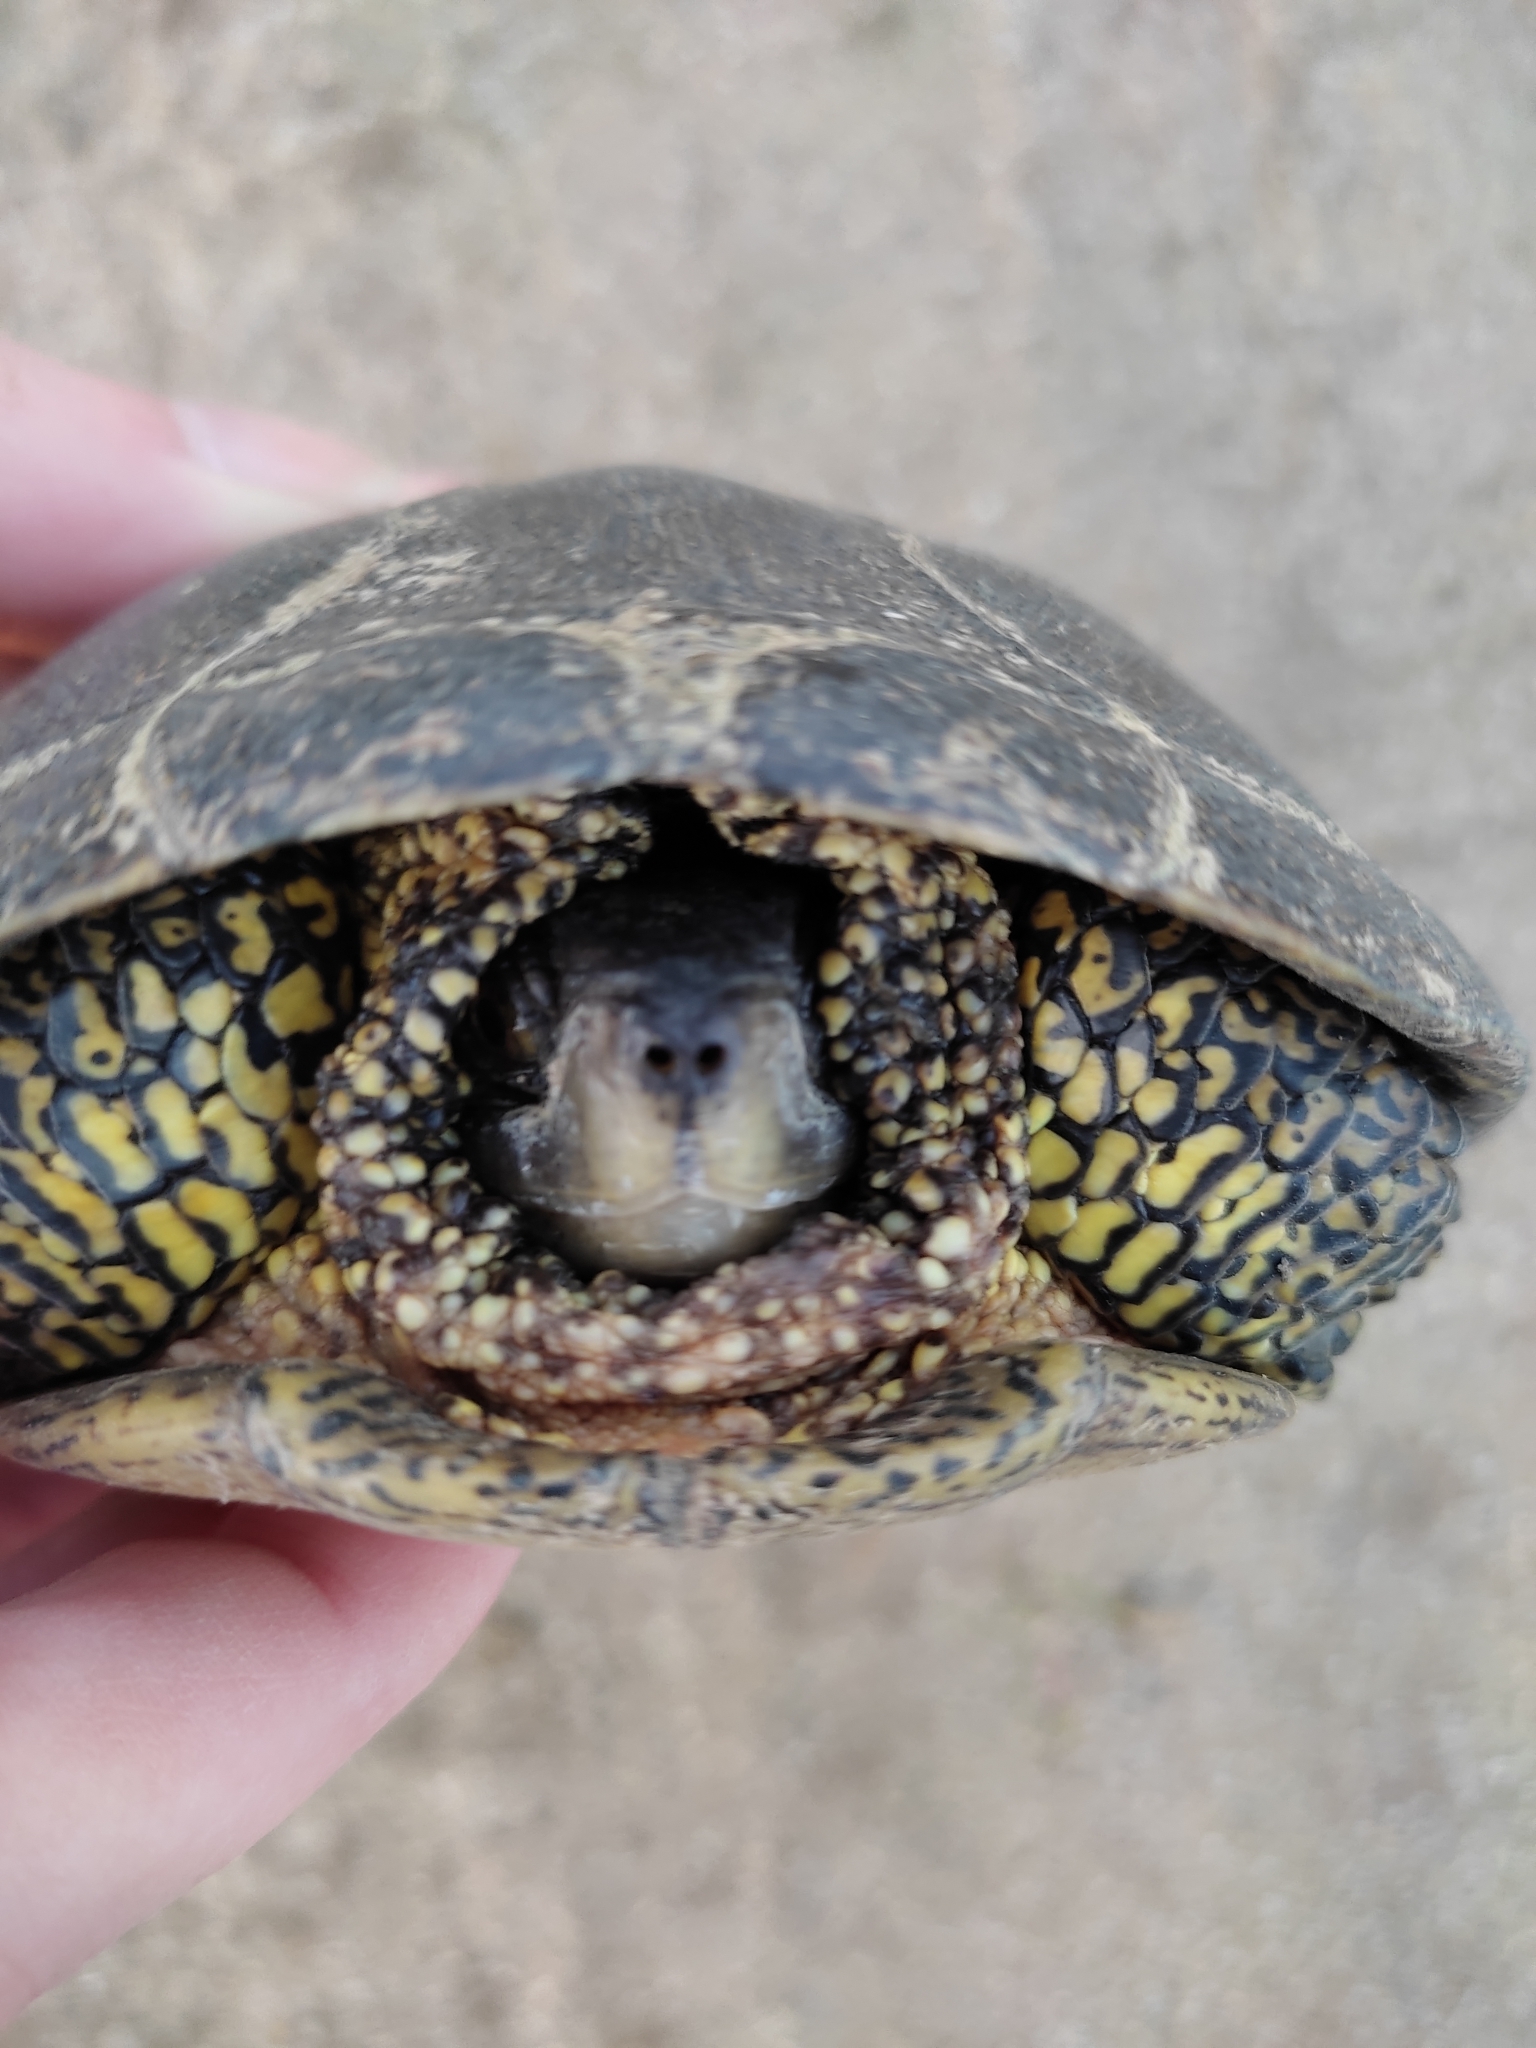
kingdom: Animalia
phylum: Chordata
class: Testudines
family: Emydidae
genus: Emys
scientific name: Emys orbicularis
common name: European pond turtle
